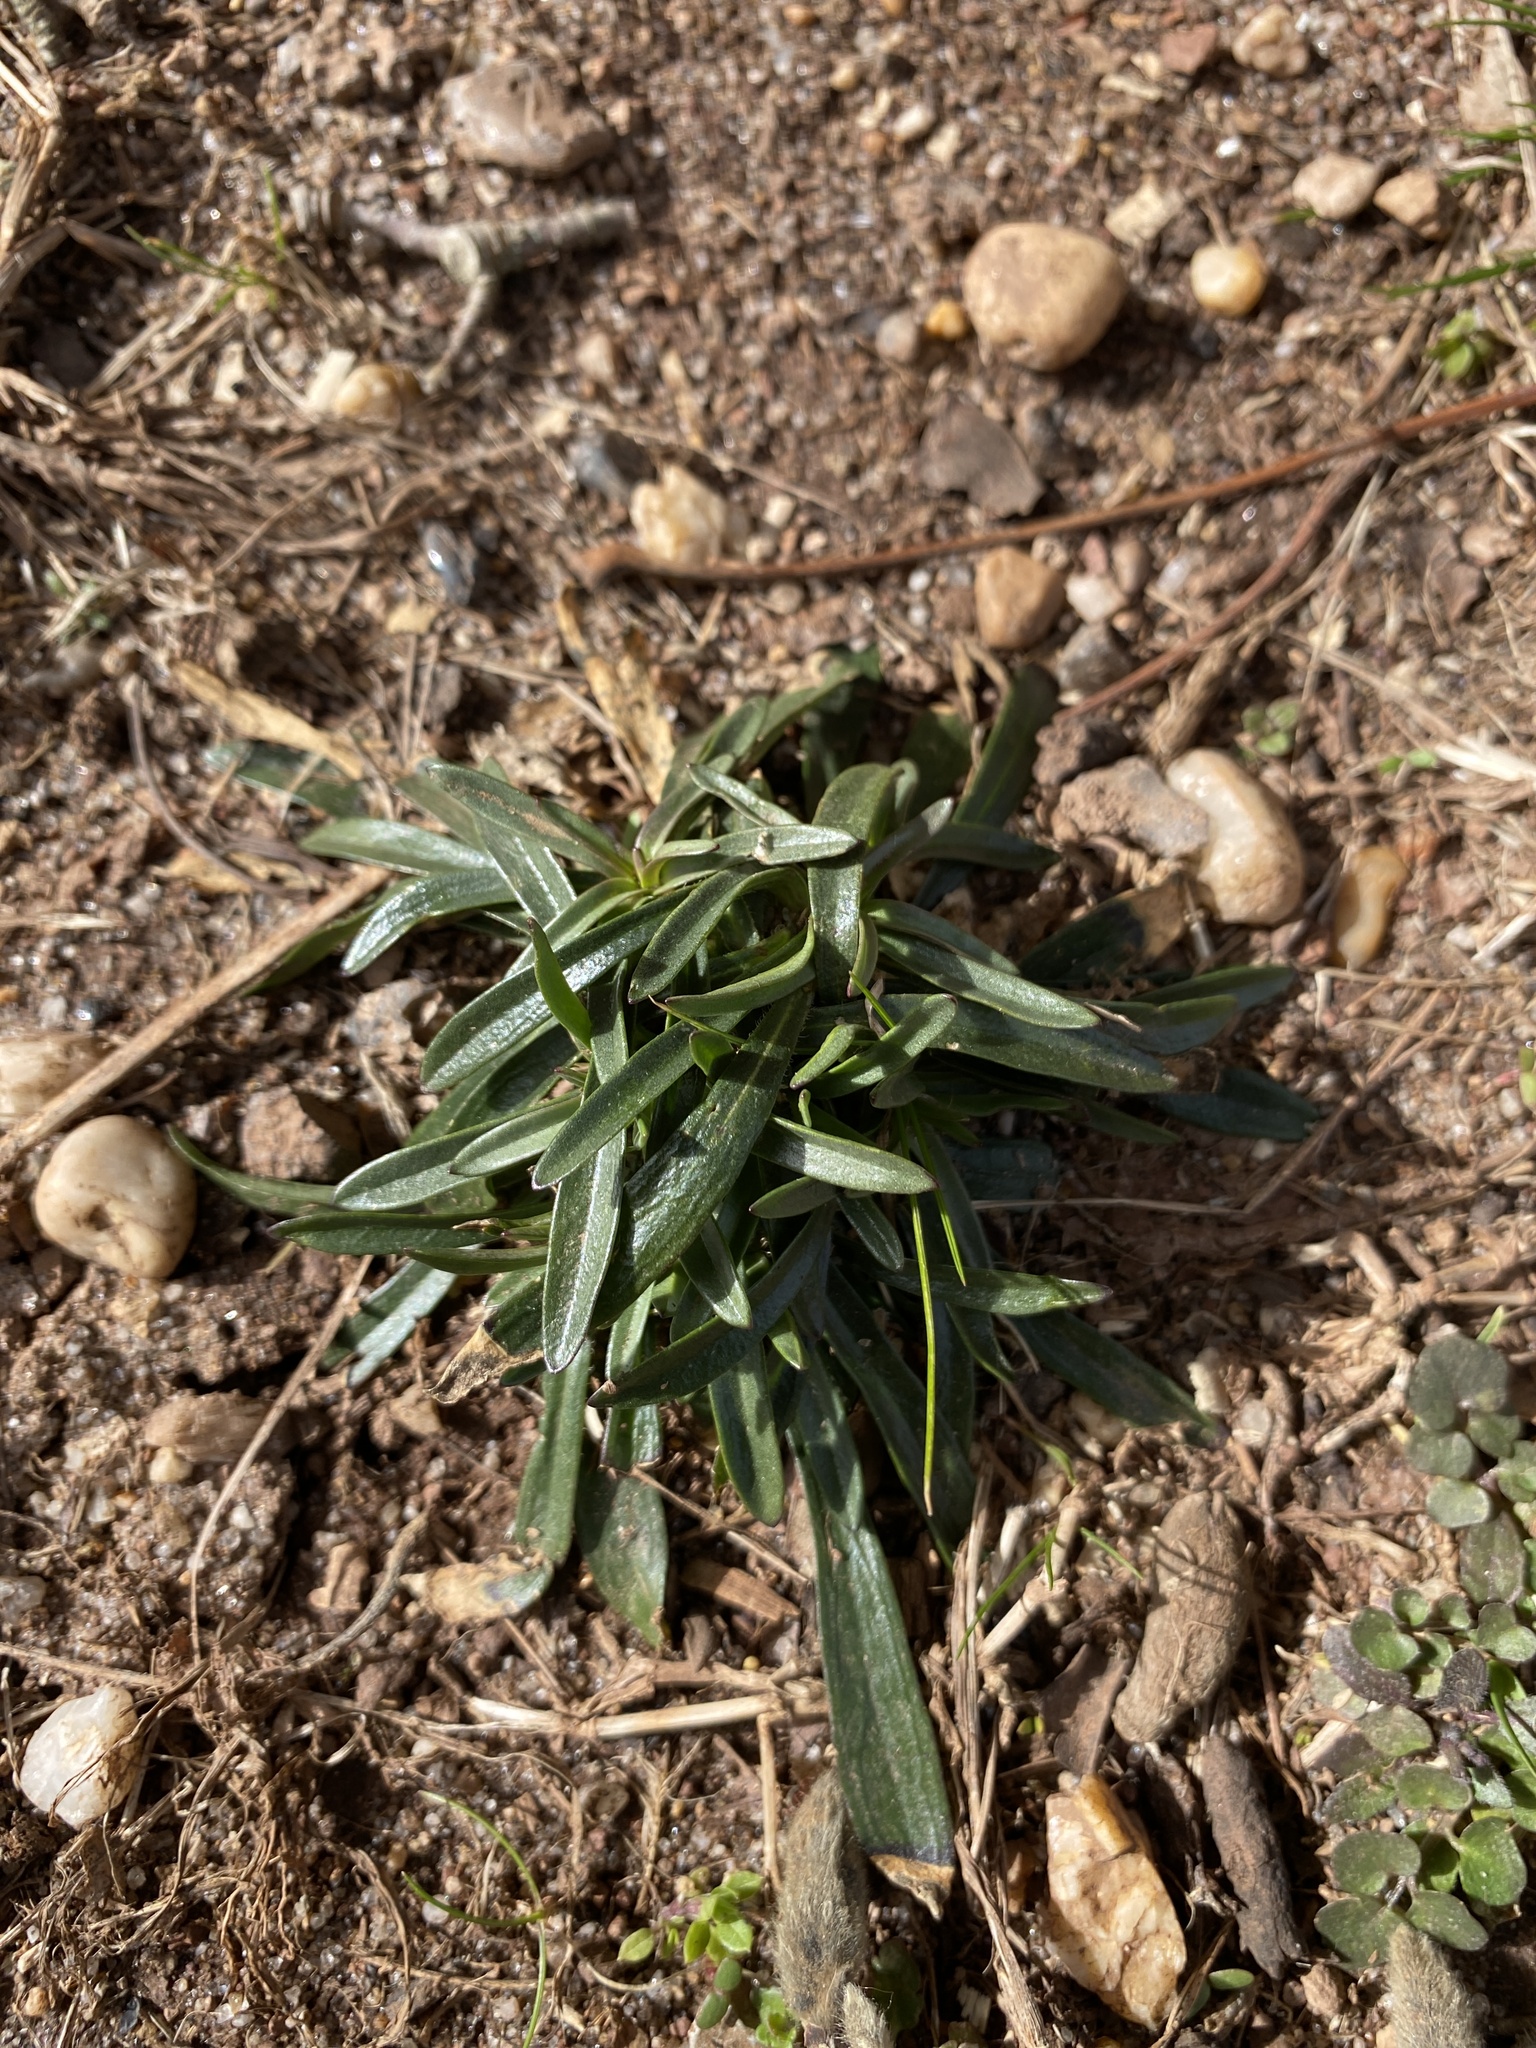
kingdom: Plantae
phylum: Tracheophyta
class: Magnoliopsida
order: Caryophyllales
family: Caryophyllaceae
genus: Dianthus
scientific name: Dianthus armeria
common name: Deptford pink
